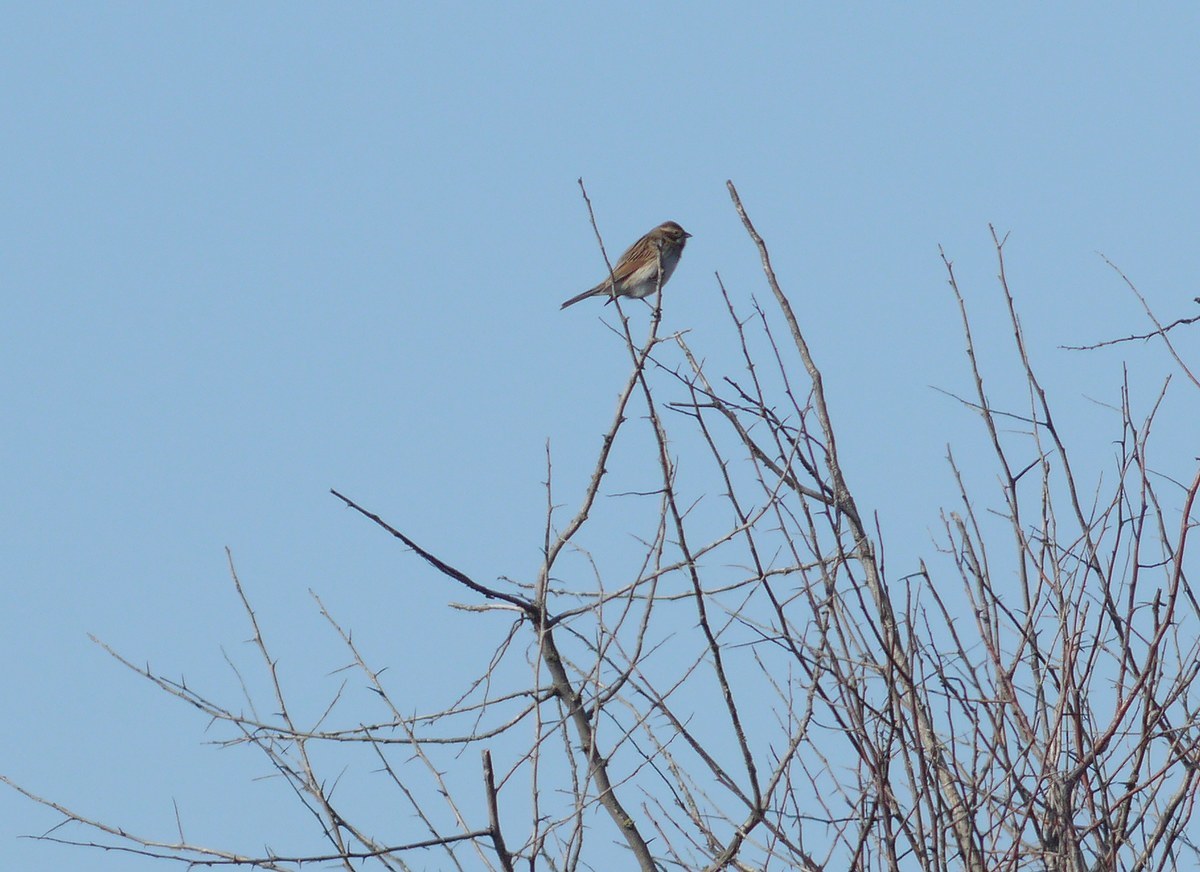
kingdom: Animalia
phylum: Chordata
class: Aves
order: Passeriformes
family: Emberizidae
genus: Emberiza
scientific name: Emberiza schoeniclus
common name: Reed bunting
